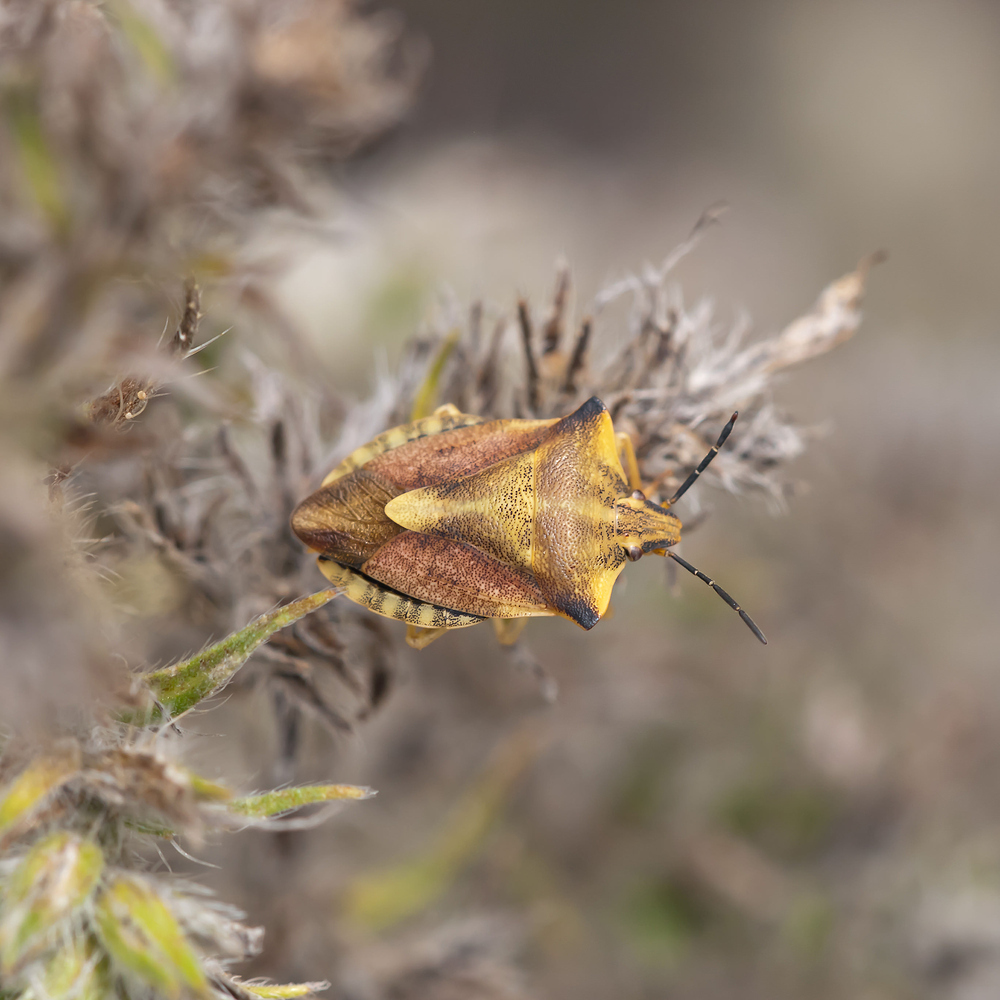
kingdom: Animalia
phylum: Arthropoda
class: Insecta
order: Hemiptera
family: Pentatomidae
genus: Carpocoris
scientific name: Carpocoris fuscispinus
